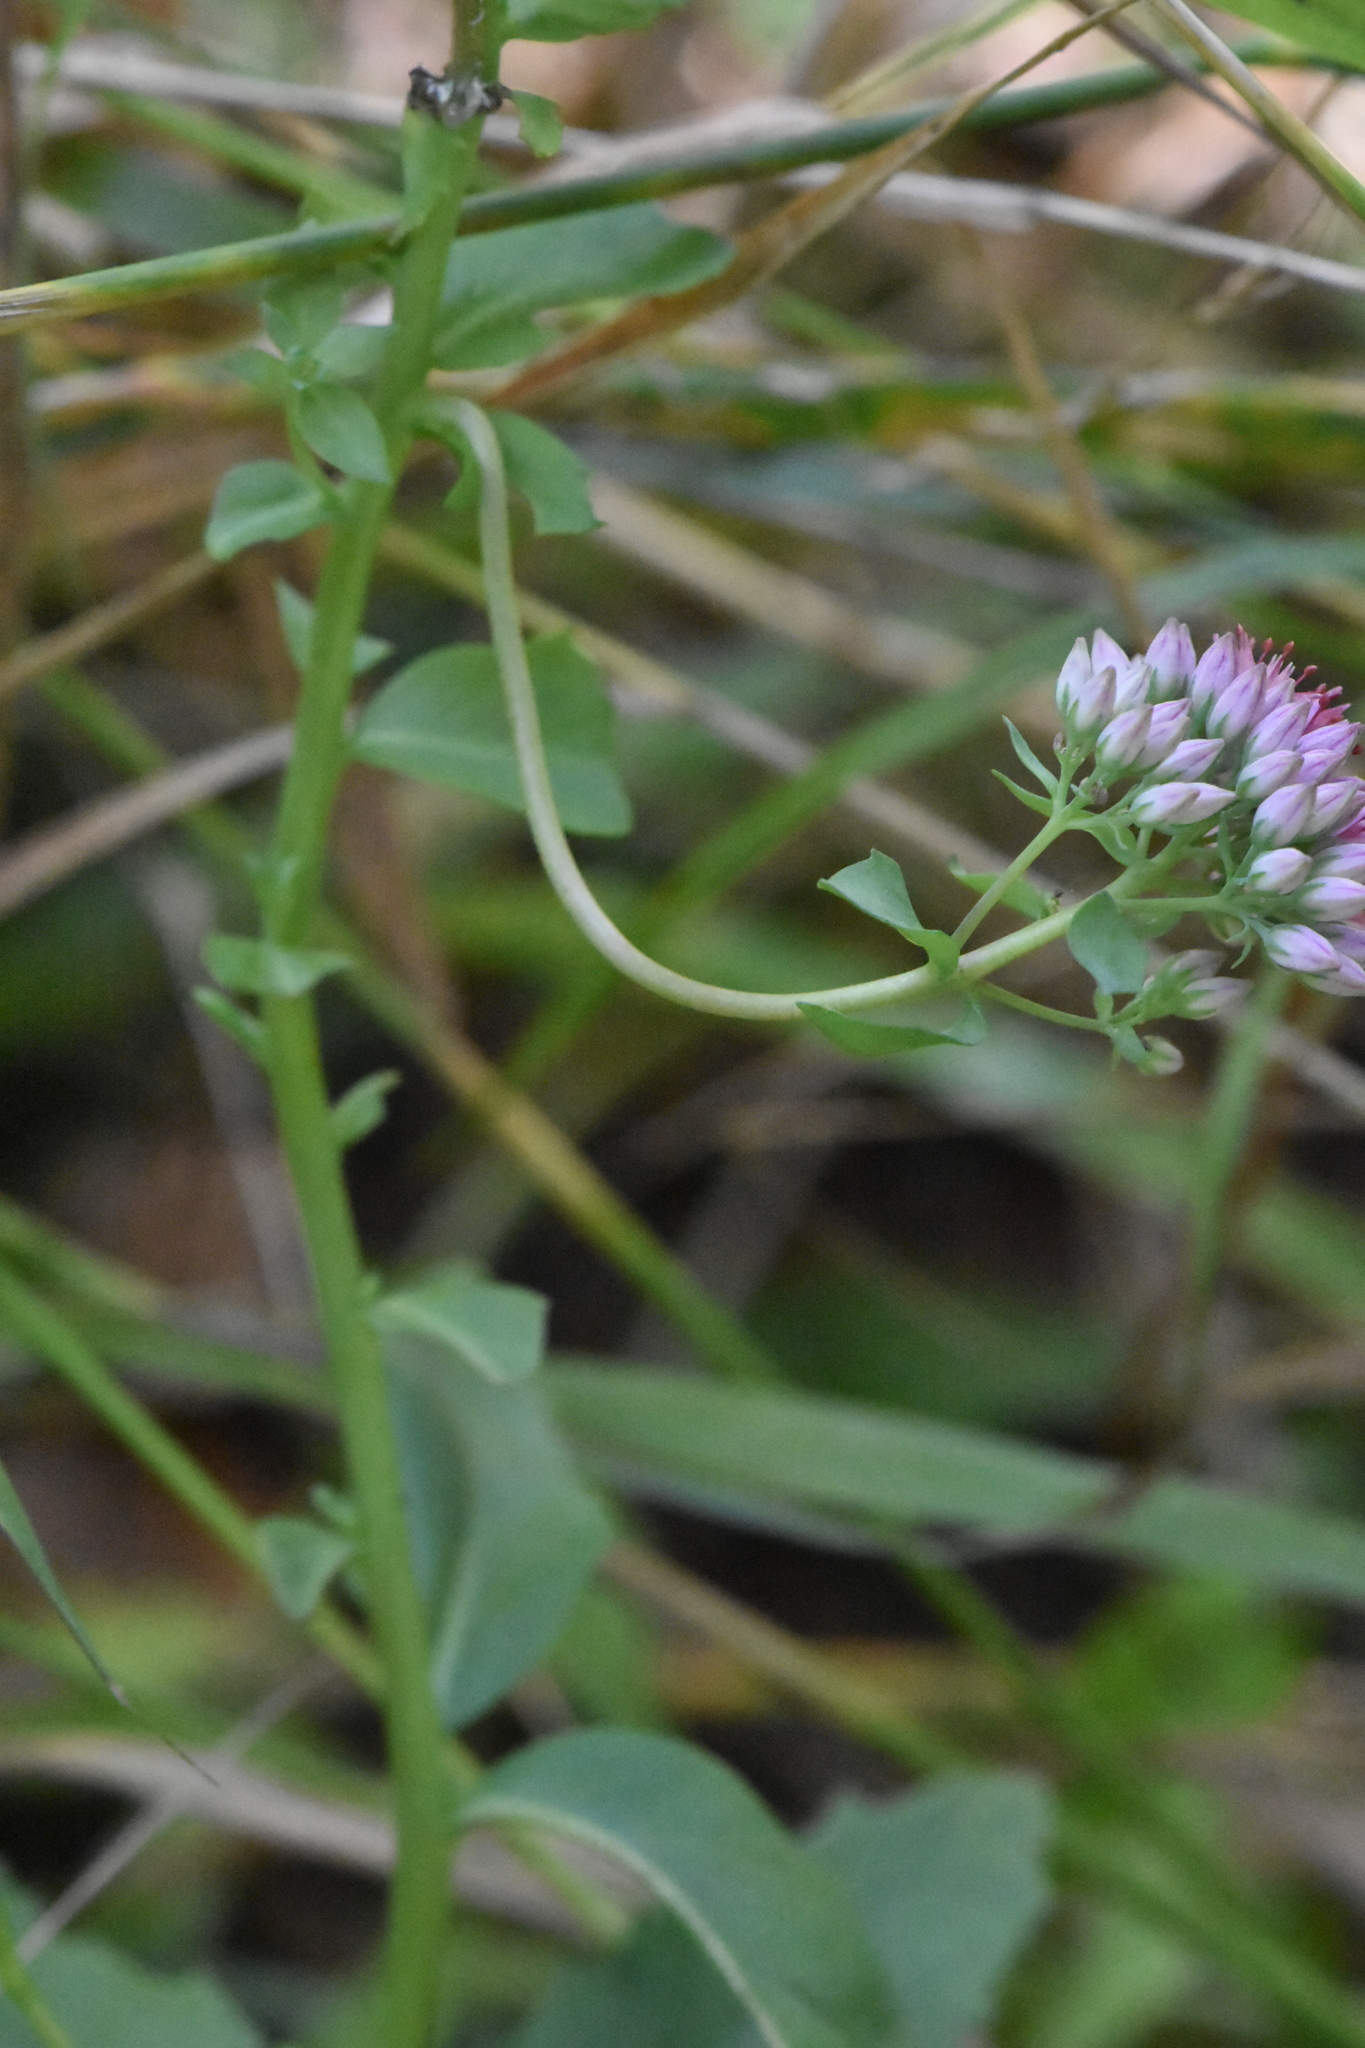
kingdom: Plantae
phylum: Tracheophyta
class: Magnoliopsida
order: Saxifragales
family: Crassulaceae
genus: Hylotelephium
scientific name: Hylotelephium telephium
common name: Live-forever
